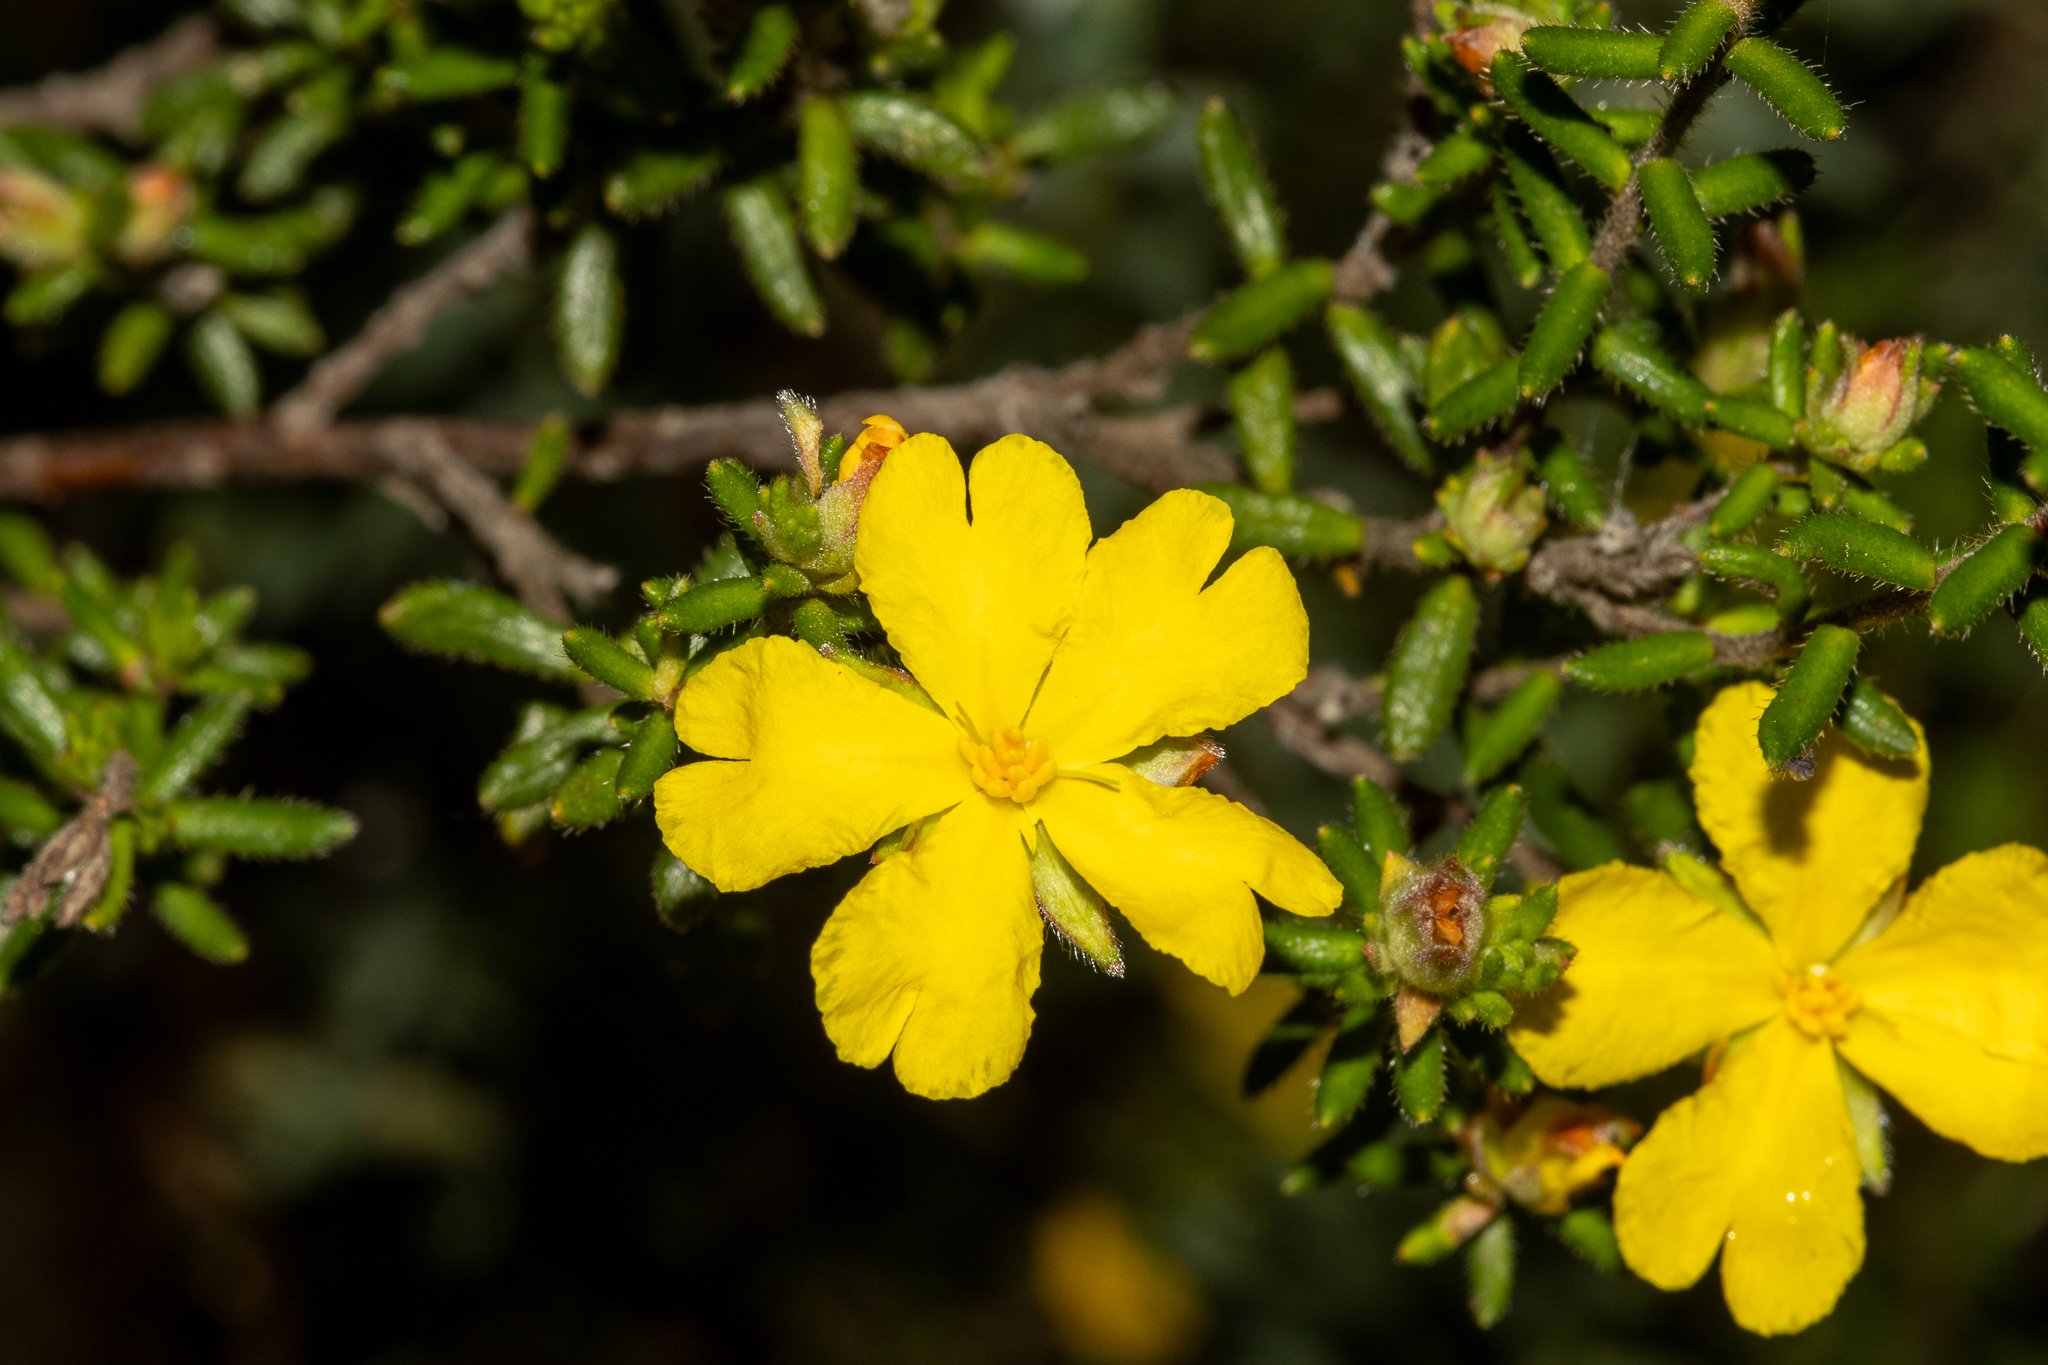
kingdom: Plantae
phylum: Tracheophyta
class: Magnoliopsida
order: Dilleniales
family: Dilleniaceae
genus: Hibbertia
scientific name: Hibbertia sericea
